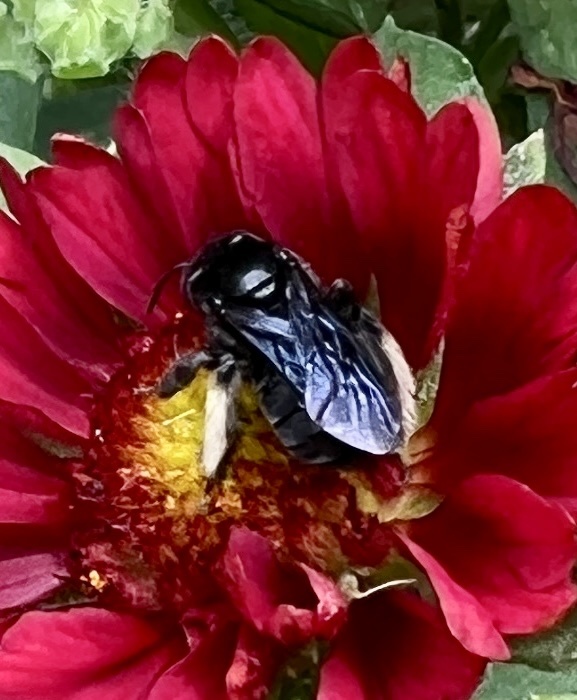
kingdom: Animalia
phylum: Arthropoda
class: Insecta
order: Hymenoptera
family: Apidae
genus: Melissodes
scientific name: Melissodes bimaculatus
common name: Two-spotted long-horned bee
